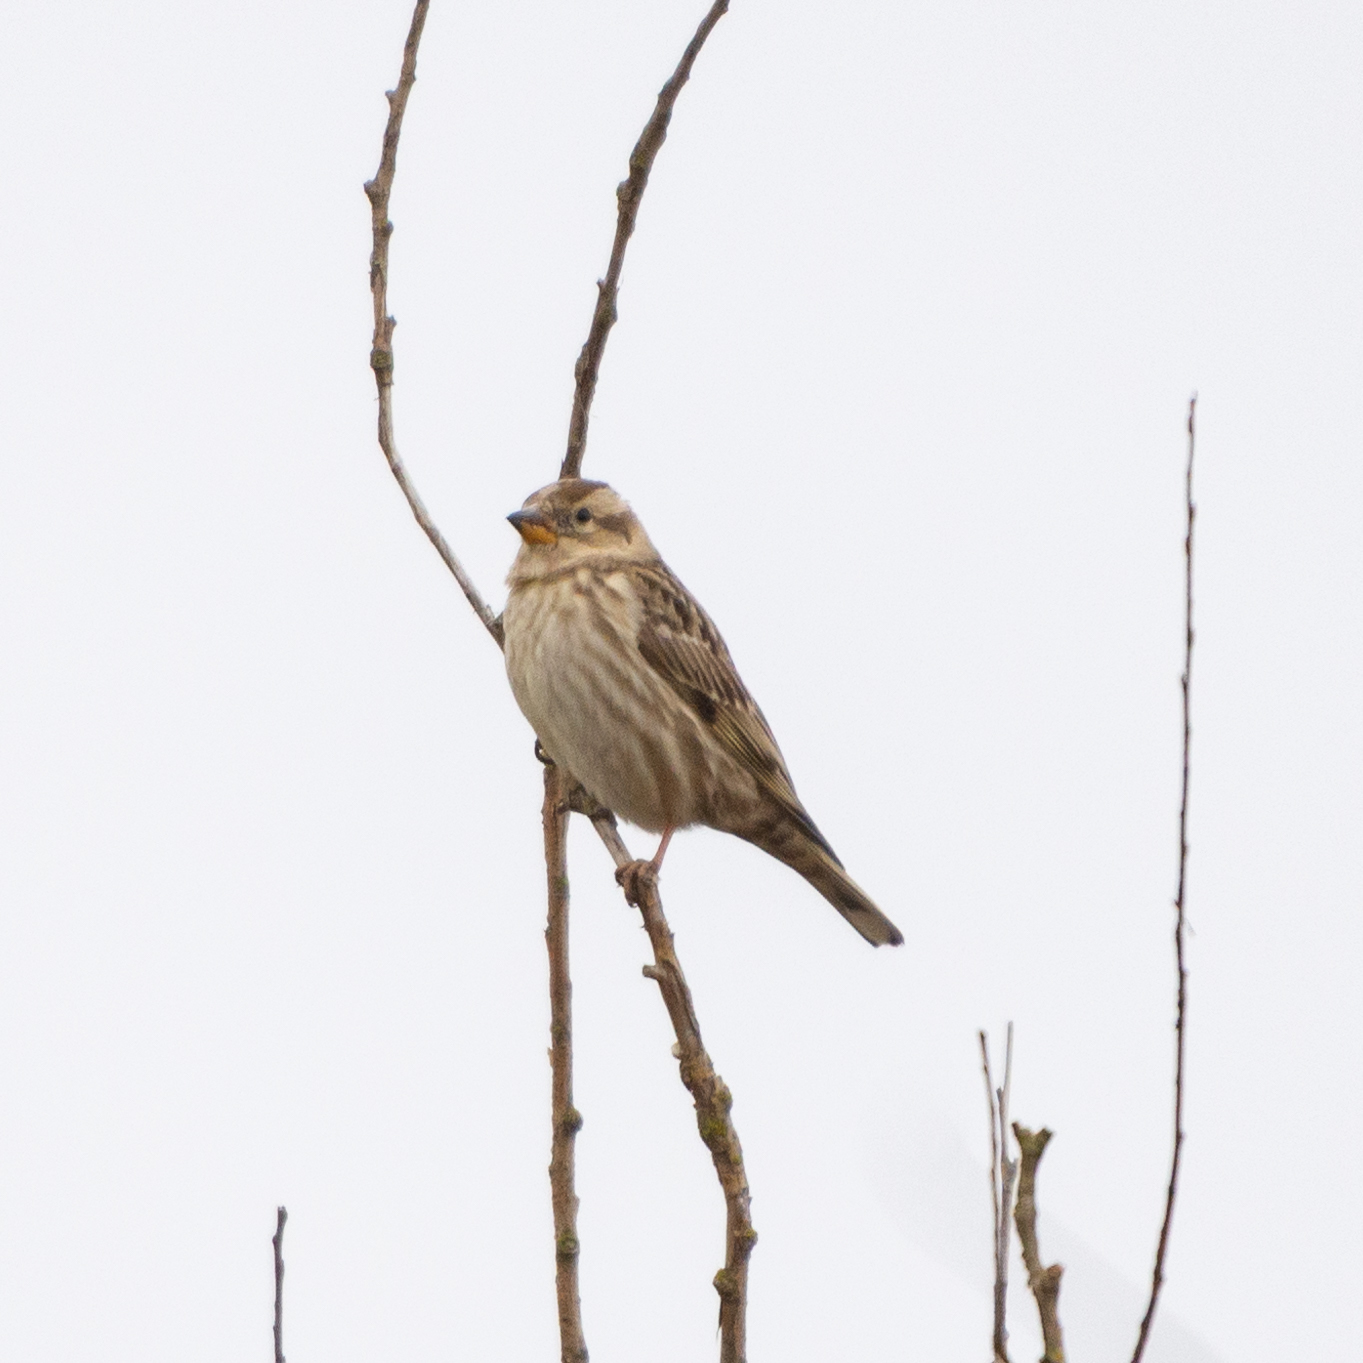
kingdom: Animalia
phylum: Chordata
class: Aves
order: Passeriformes
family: Passeridae
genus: Petronia
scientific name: Petronia petronia
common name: Rock sparrow
